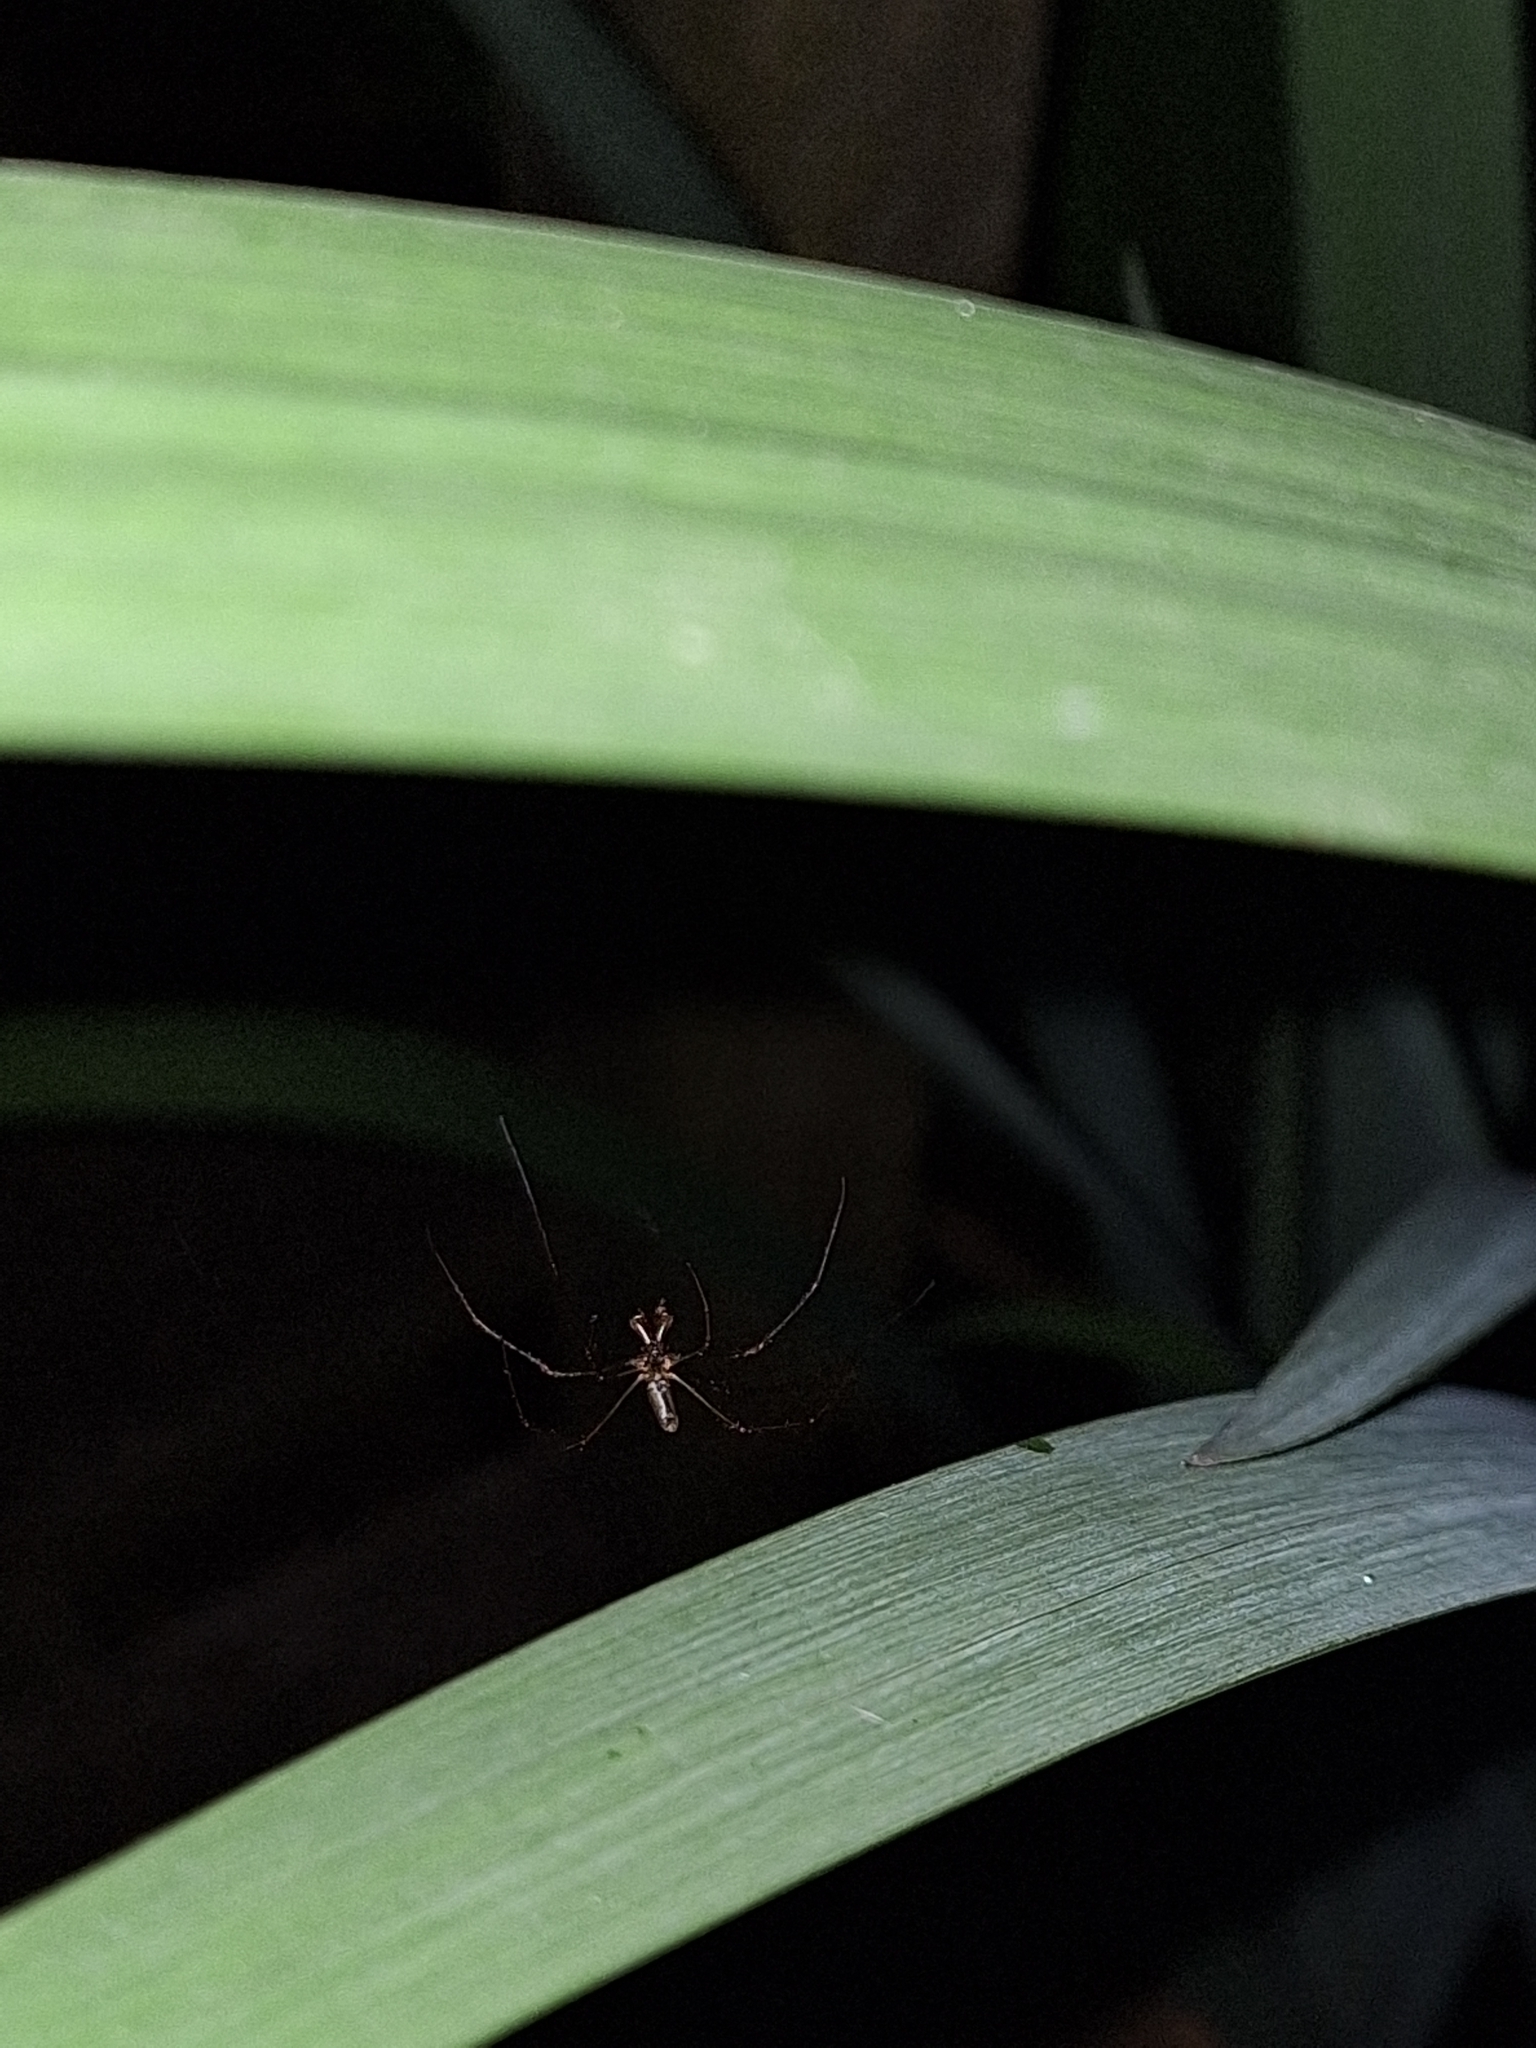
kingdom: Animalia
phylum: Arthropoda
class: Arachnida
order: Araneae
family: Tetragnathidae
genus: Tetragnatha
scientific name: Tetragnatha
